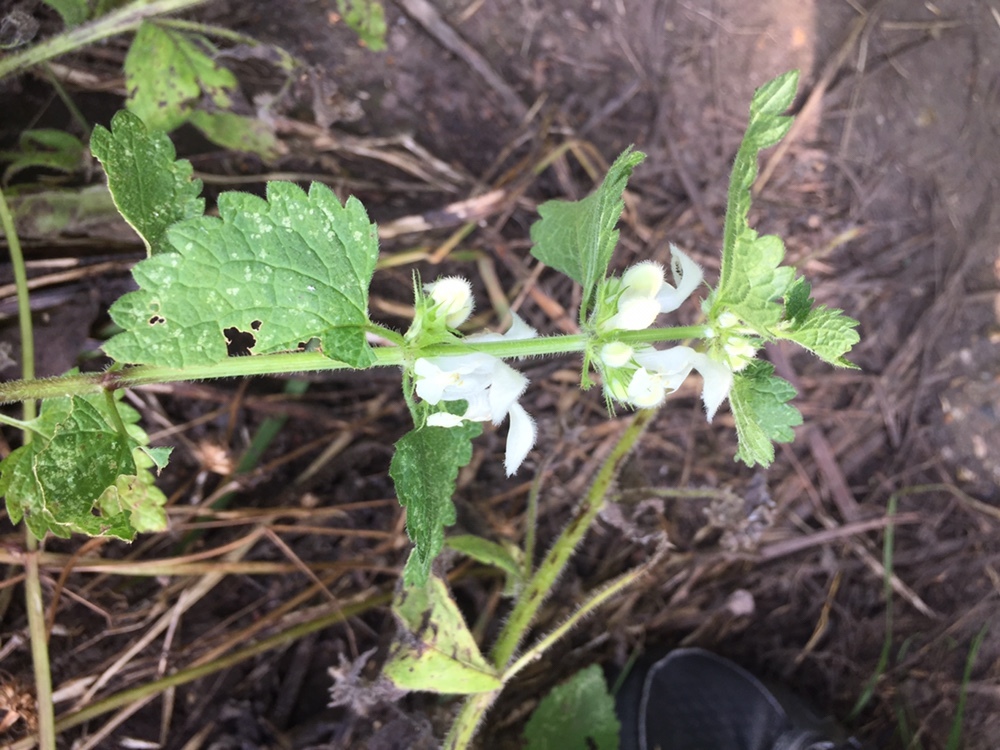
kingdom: Plantae
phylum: Tracheophyta
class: Magnoliopsida
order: Lamiales
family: Lamiaceae
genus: Lamium
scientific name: Lamium album
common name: White dead-nettle
